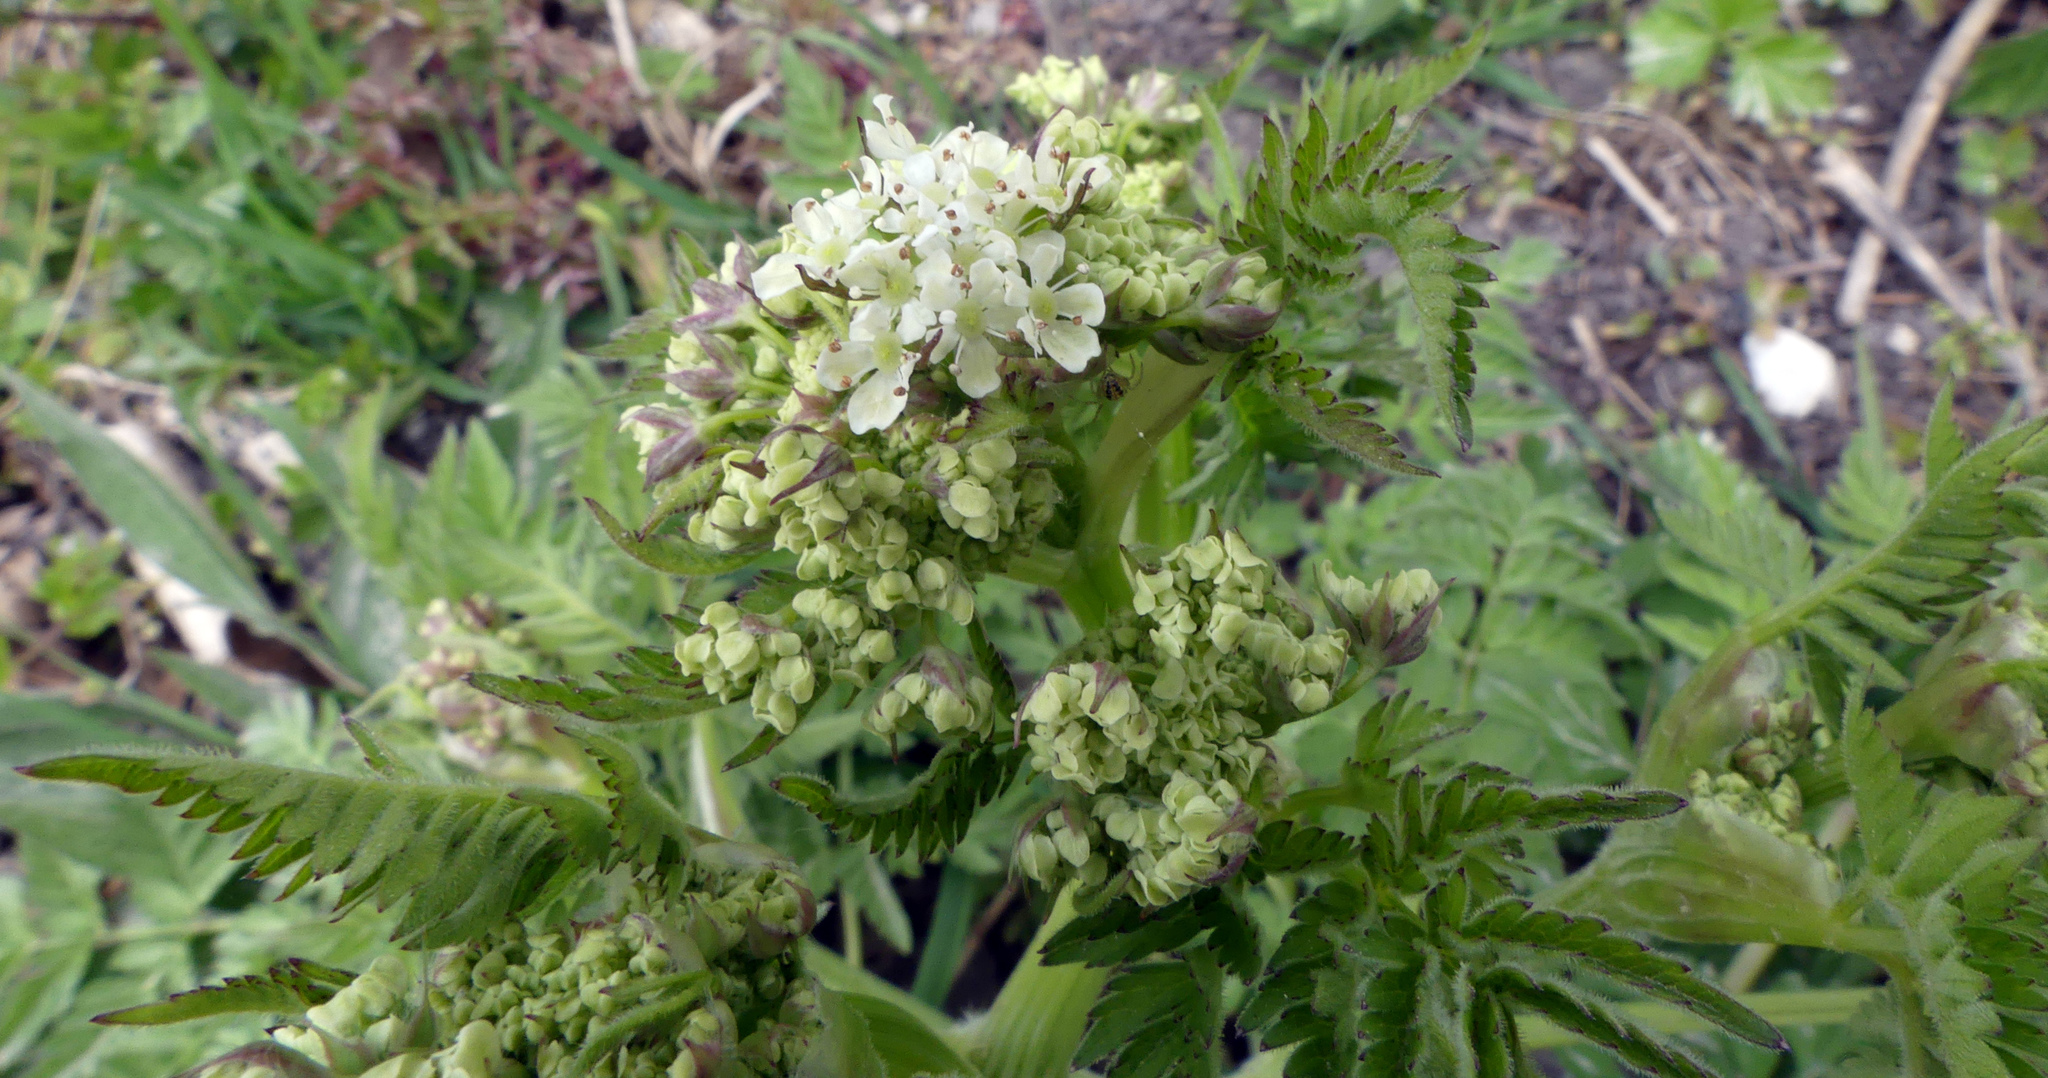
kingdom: Plantae
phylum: Tracheophyta
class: Magnoliopsida
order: Apiales
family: Apiaceae
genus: Anthriscus
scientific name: Anthriscus sylvestris
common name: Cow parsley
